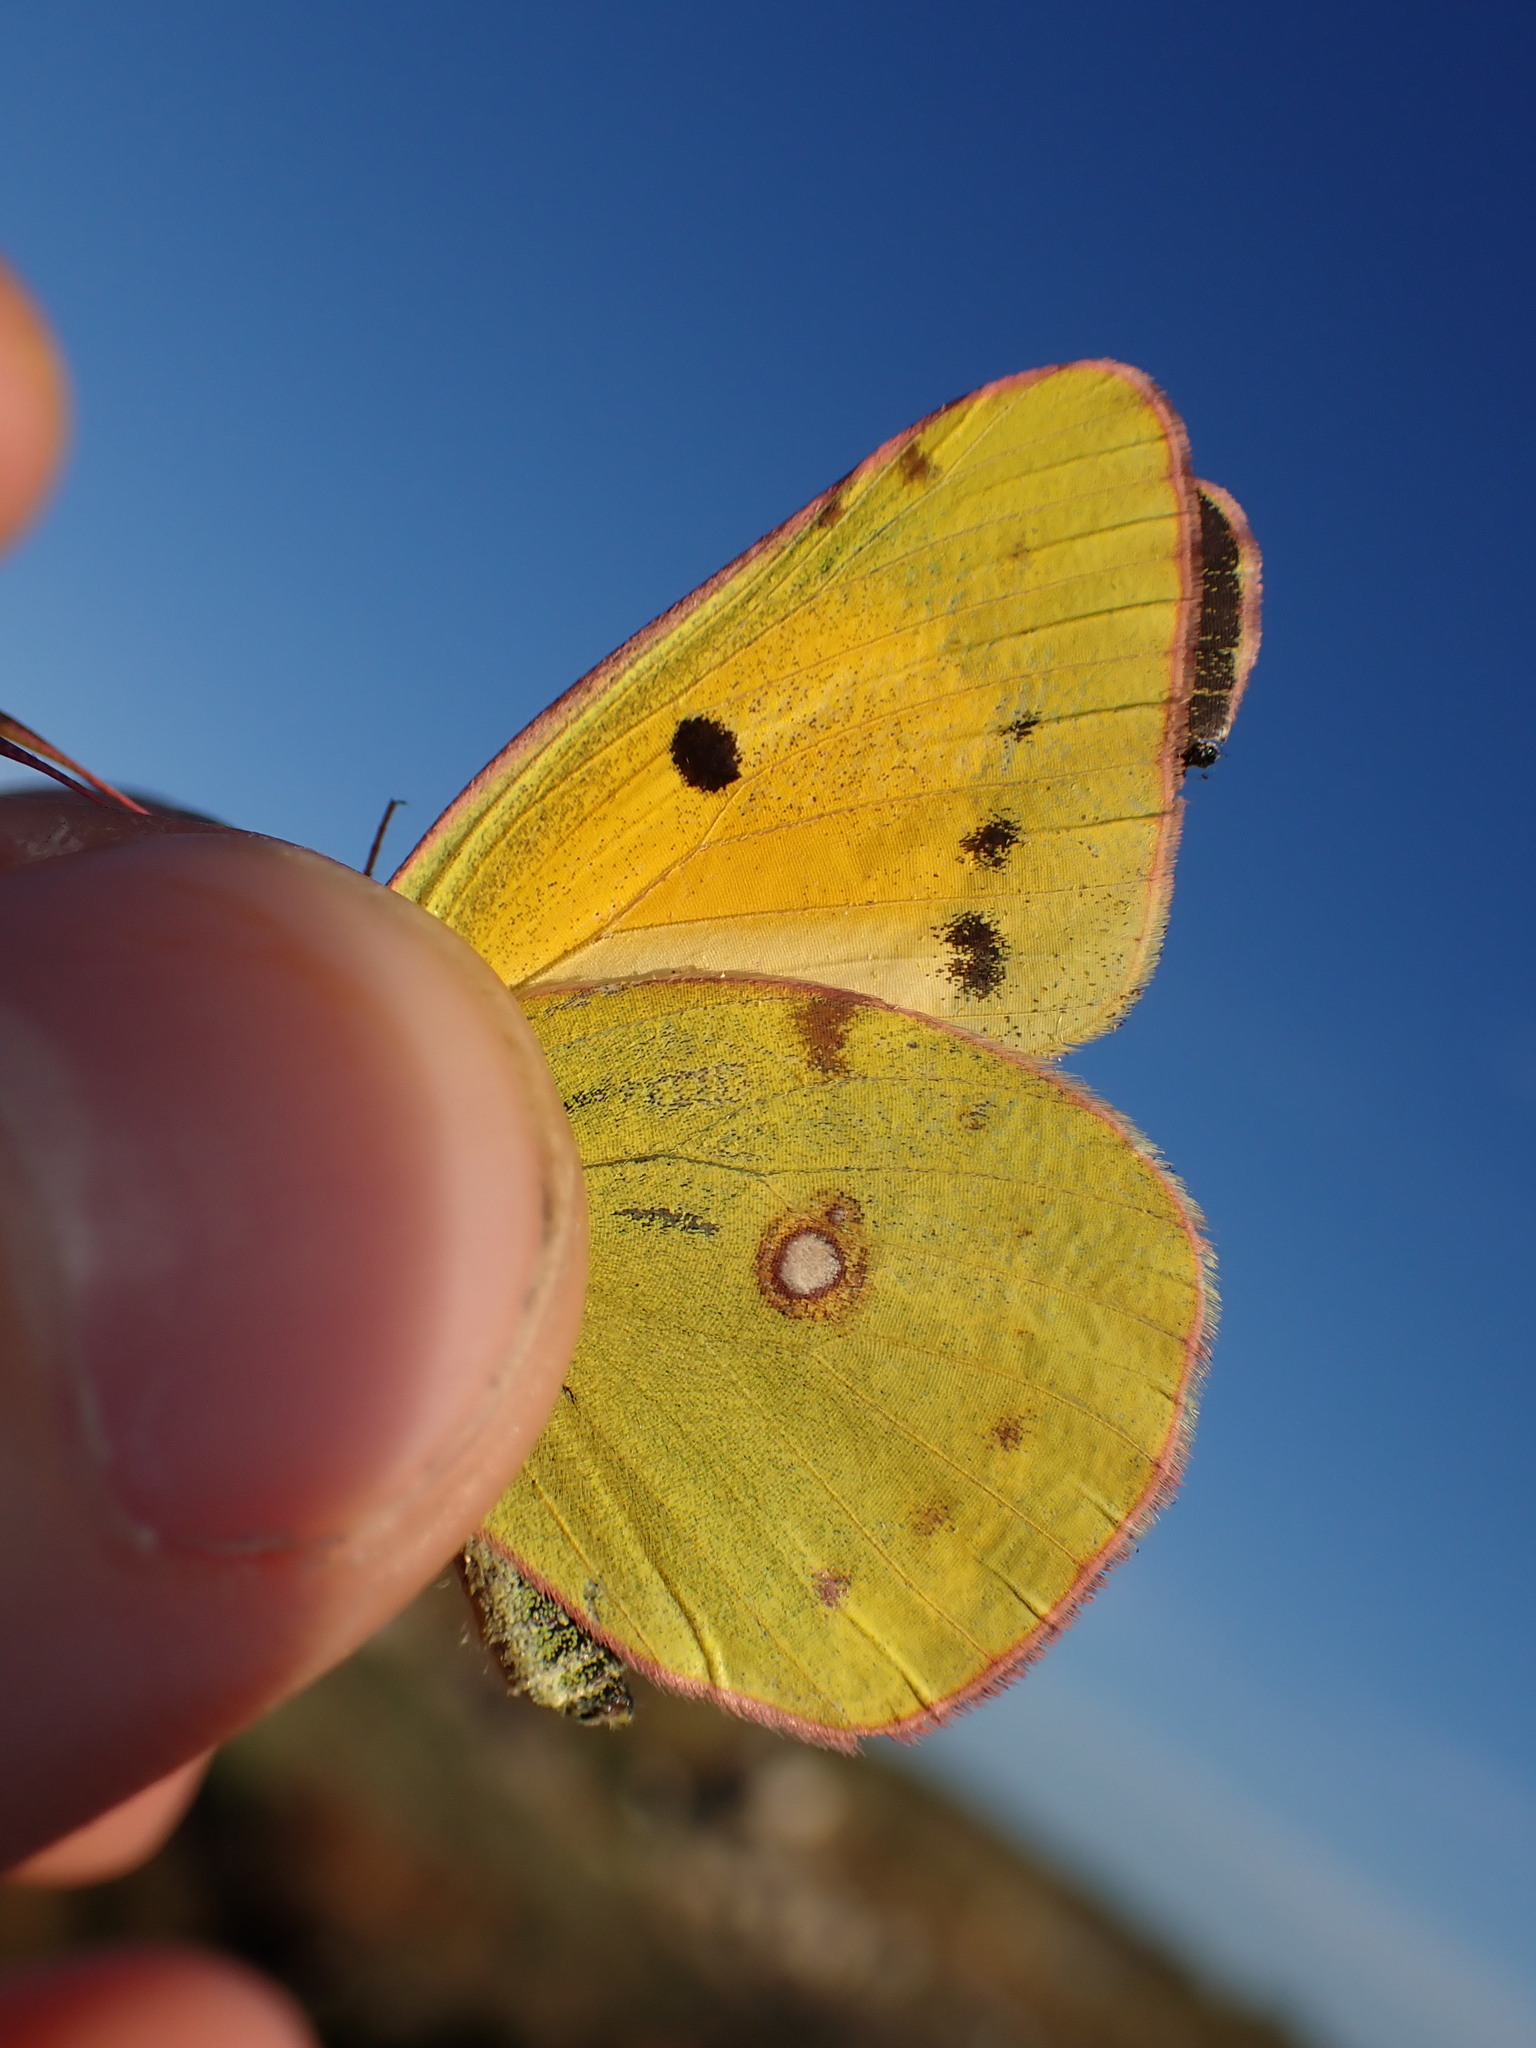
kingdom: Animalia
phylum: Arthropoda
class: Insecta
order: Lepidoptera
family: Pieridae
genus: Colias
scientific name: Colias croceus
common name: Clouded yellow
